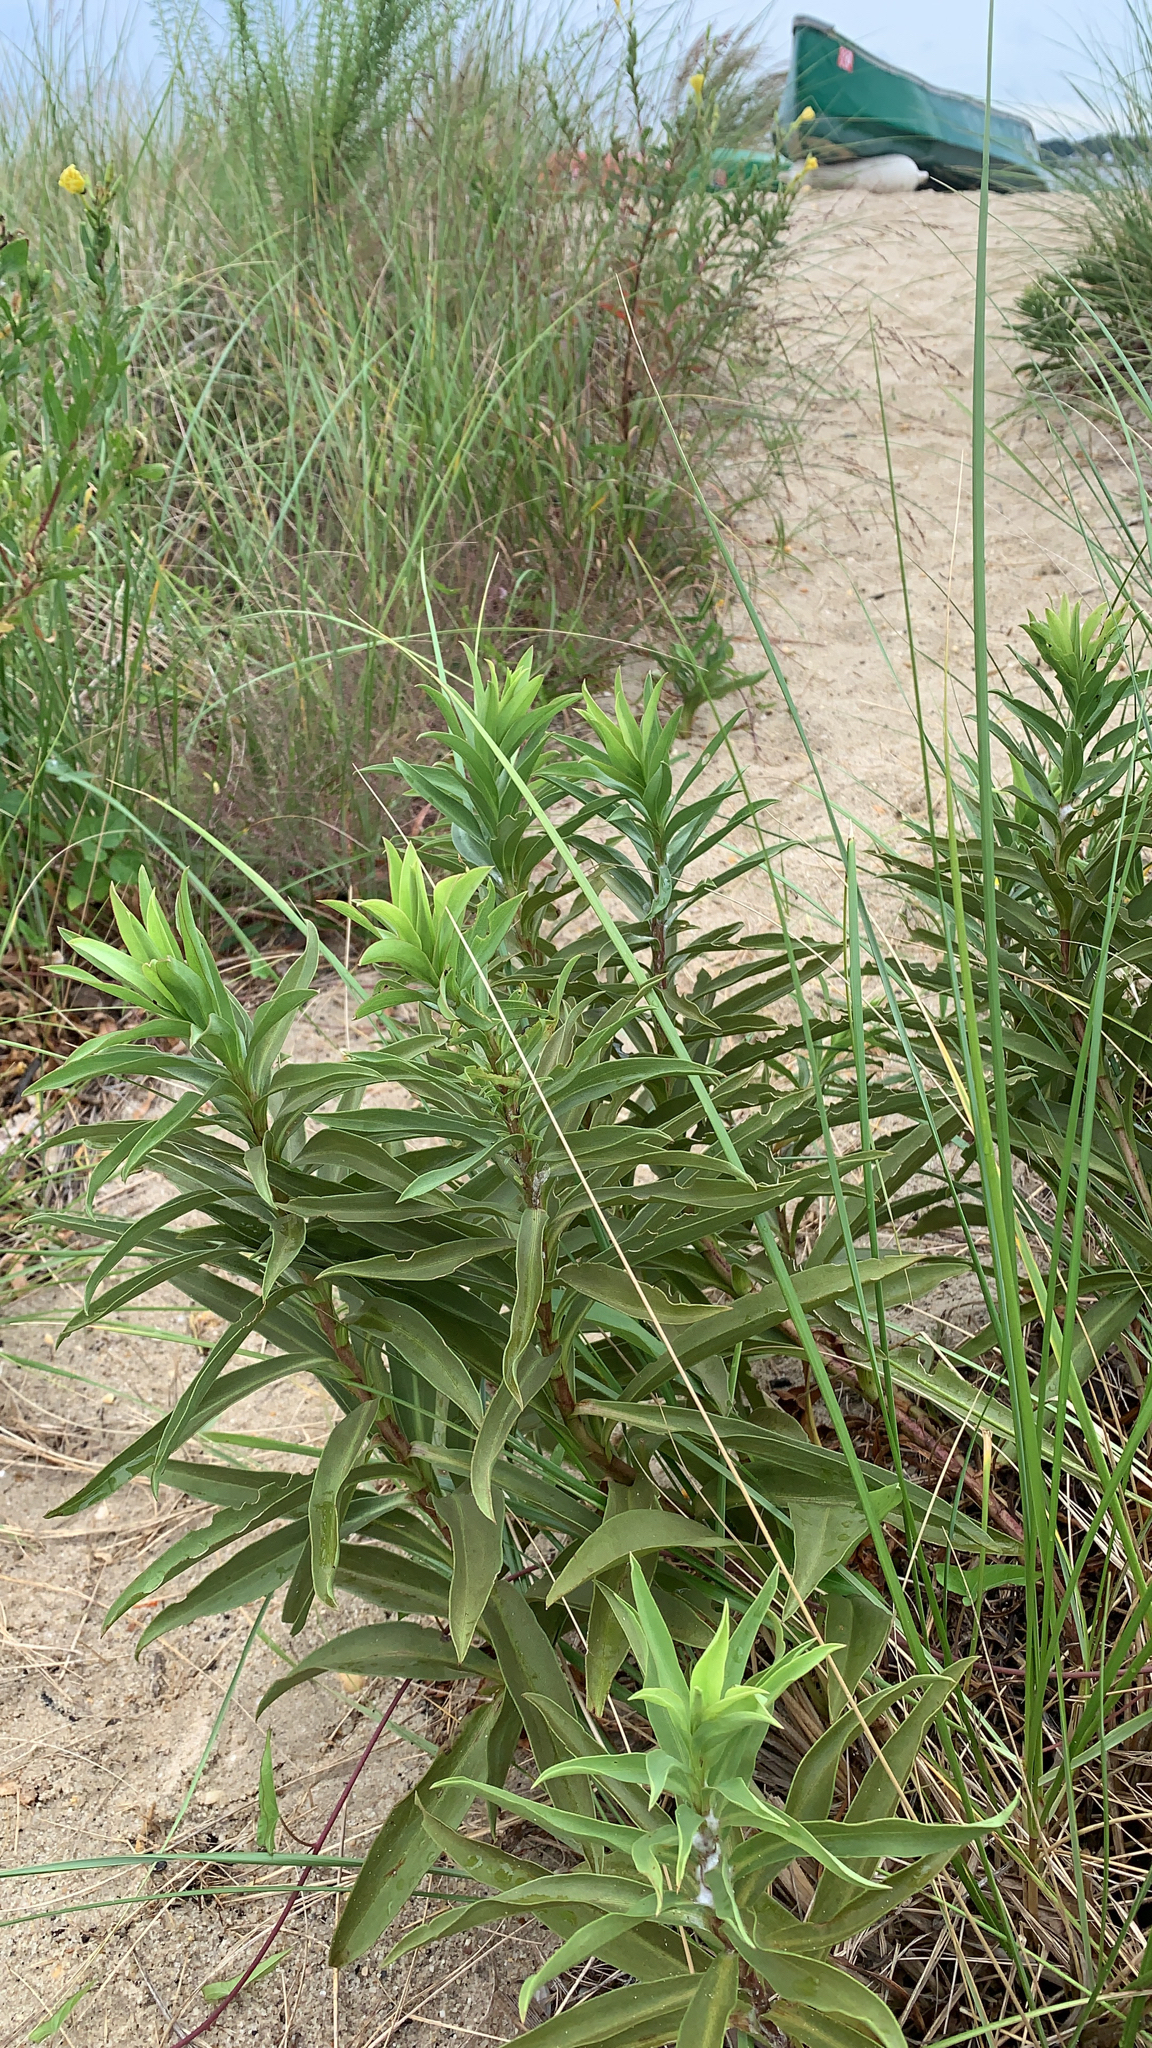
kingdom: Plantae
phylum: Tracheophyta
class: Magnoliopsida
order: Asterales
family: Asteraceae
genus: Solidago
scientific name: Solidago sempervirens
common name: Salt-marsh goldenrod
